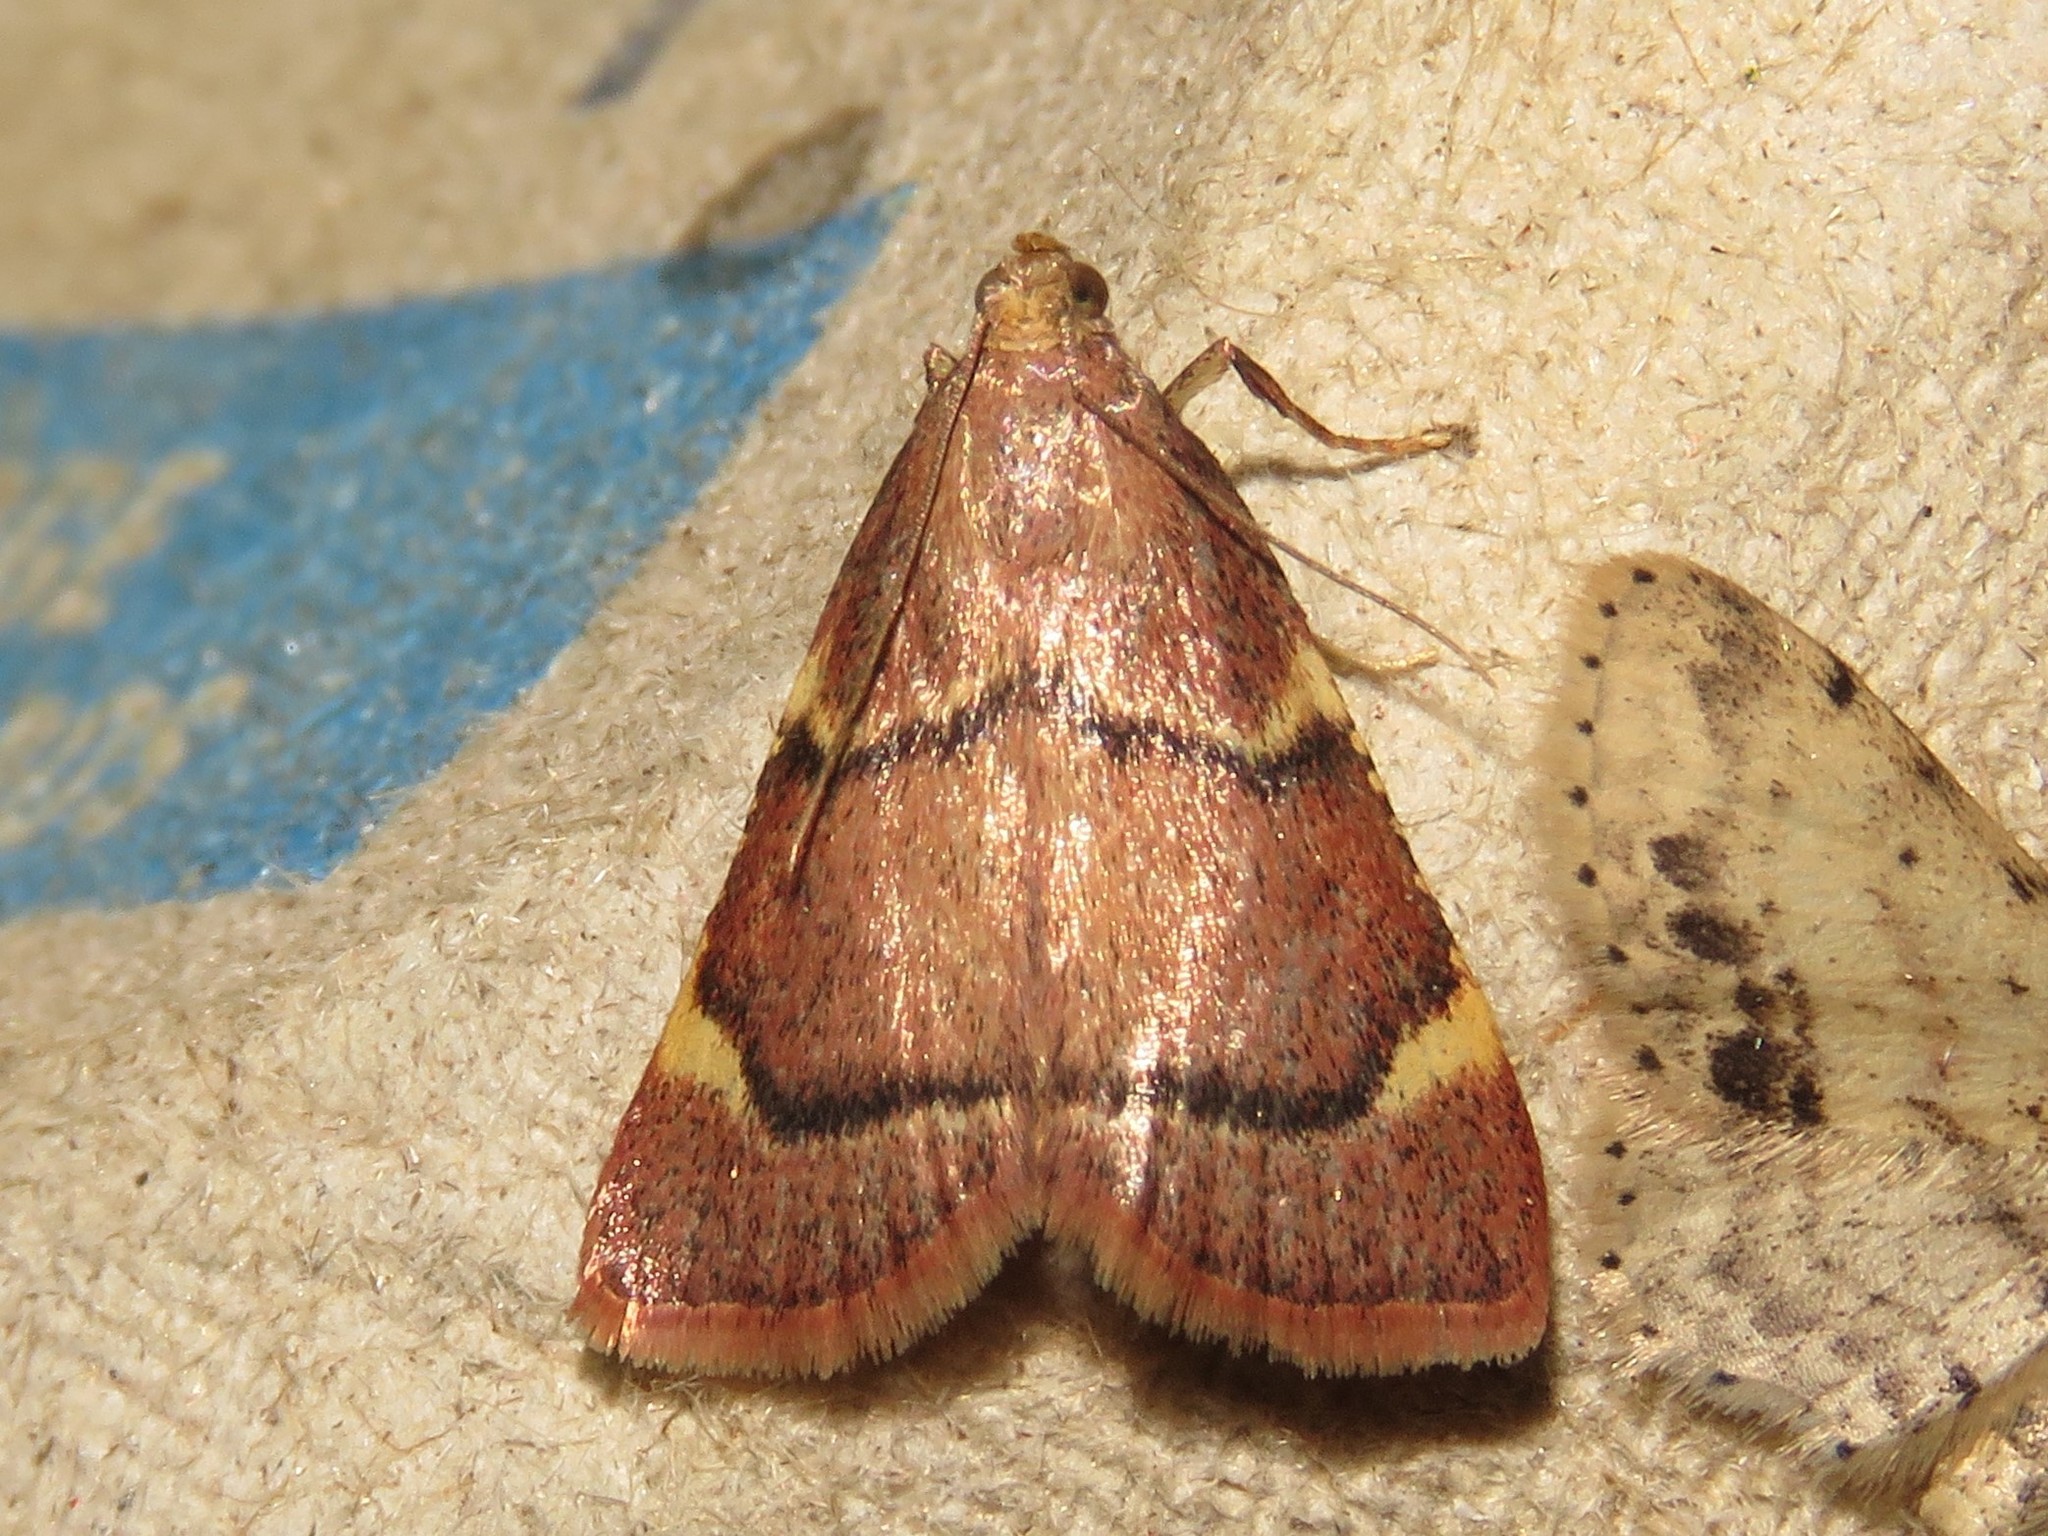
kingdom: Animalia
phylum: Arthropoda
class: Insecta
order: Lepidoptera
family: Pyralidae
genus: Hypsopygia
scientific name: Hypsopygia thymetusalis
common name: Spruce needleworm moth
